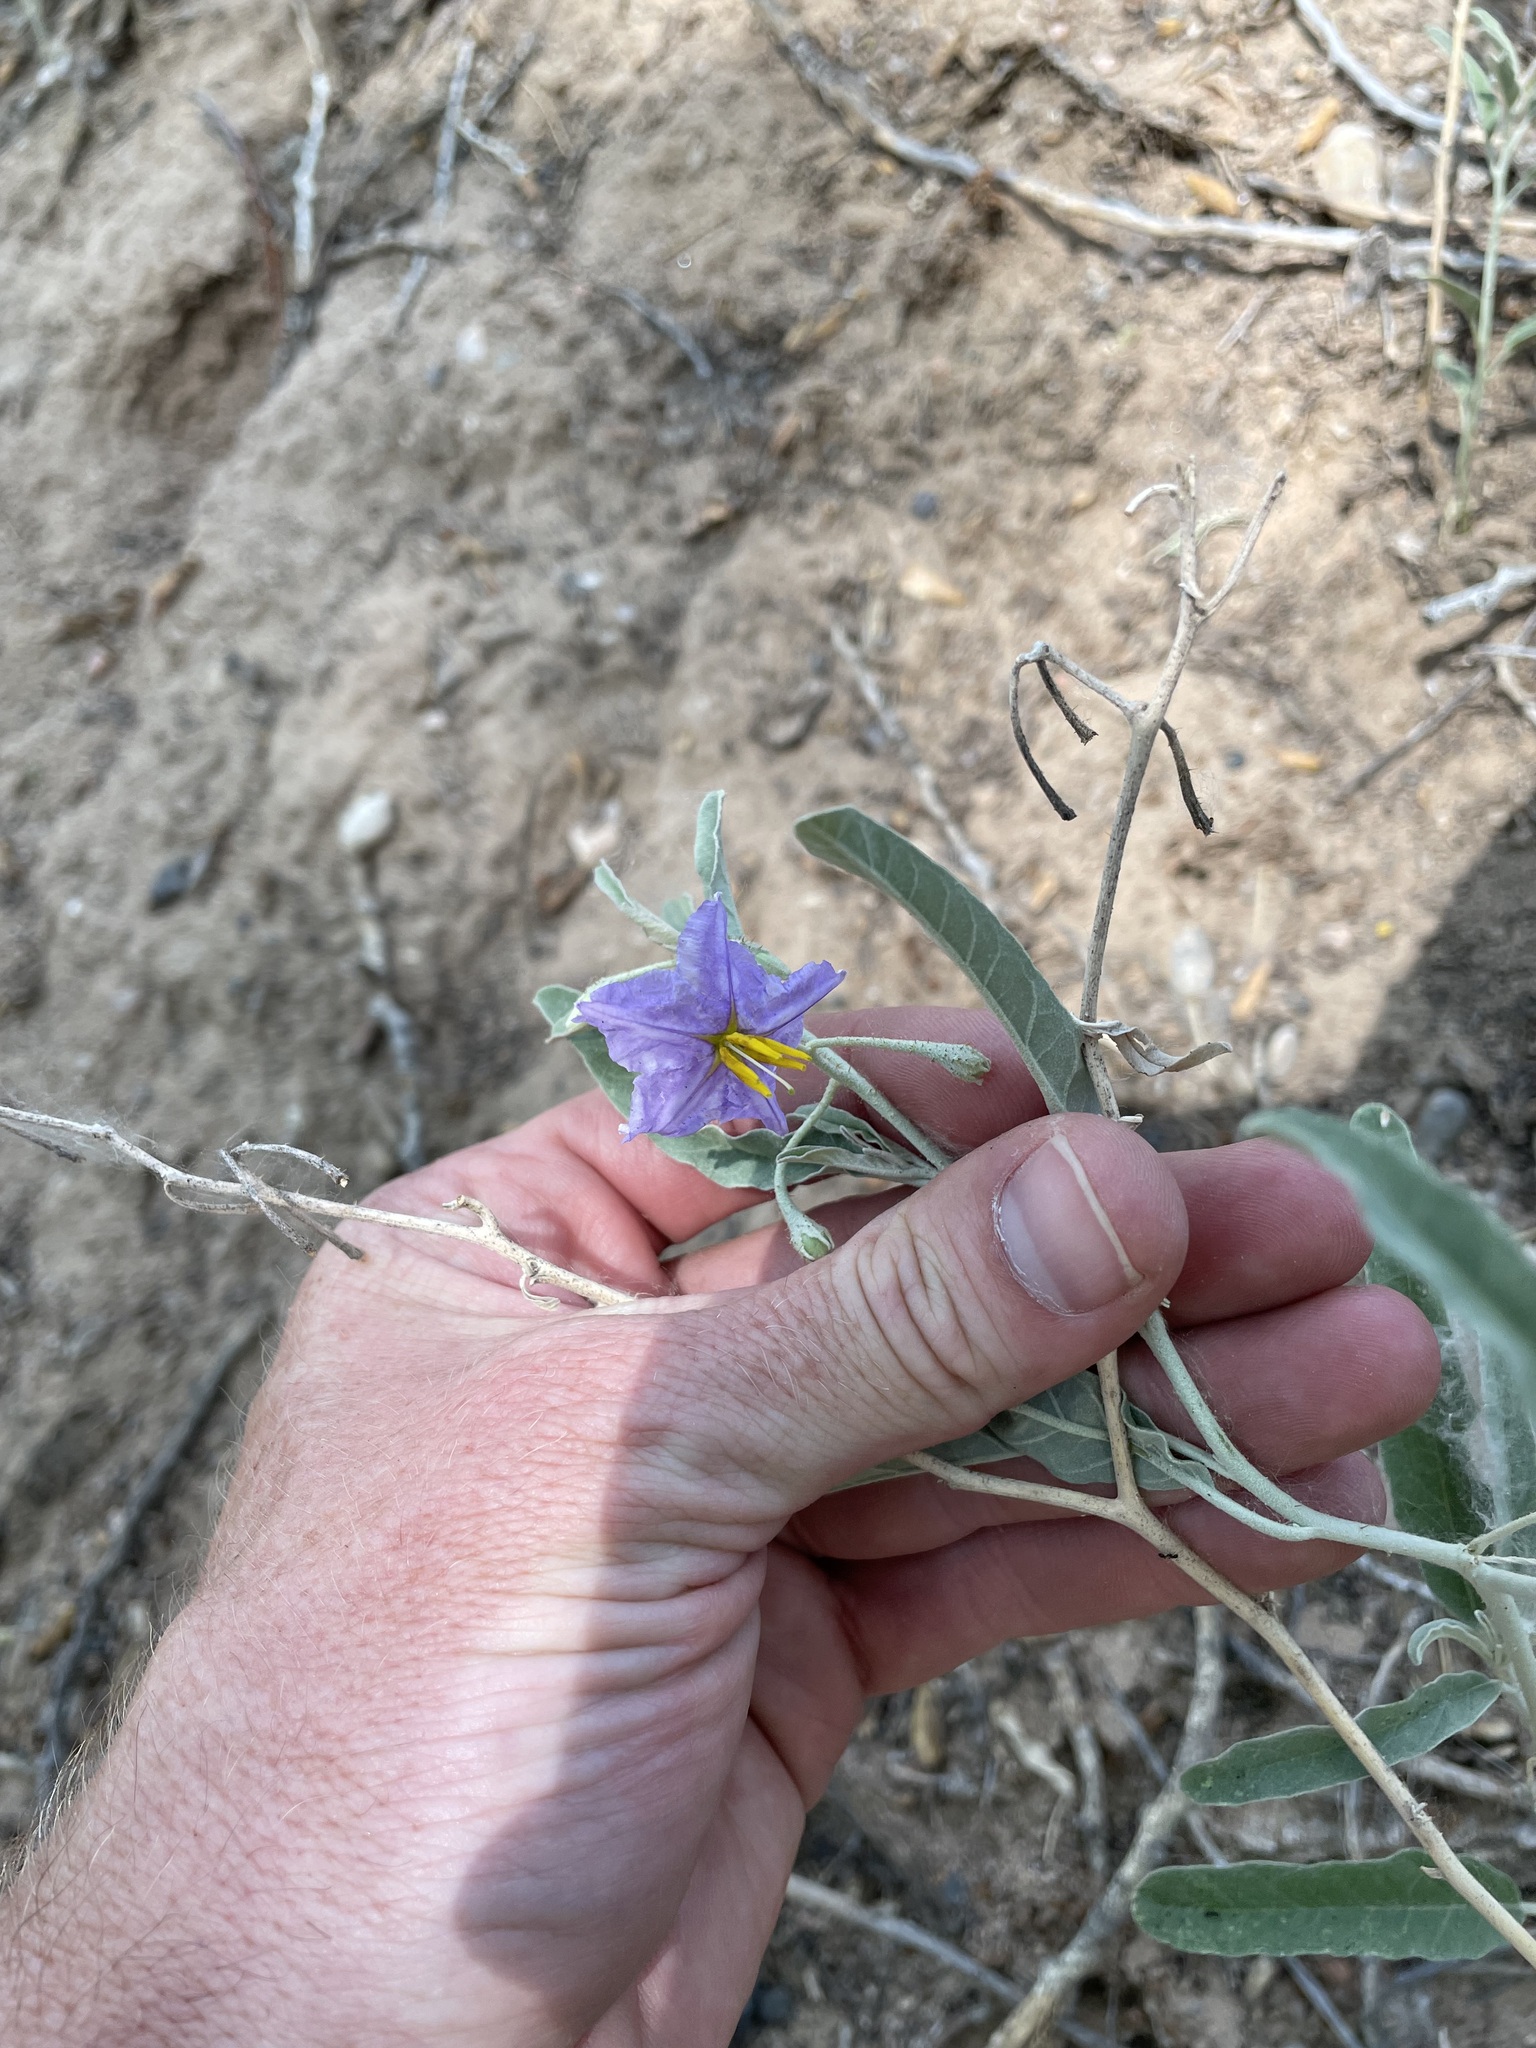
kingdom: Plantae
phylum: Tracheophyta
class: Magnoliopsida
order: Solanales
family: Solanaceae
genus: Solanum
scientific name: Solanum elaeagnifolium
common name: Silverleaf nightshade
